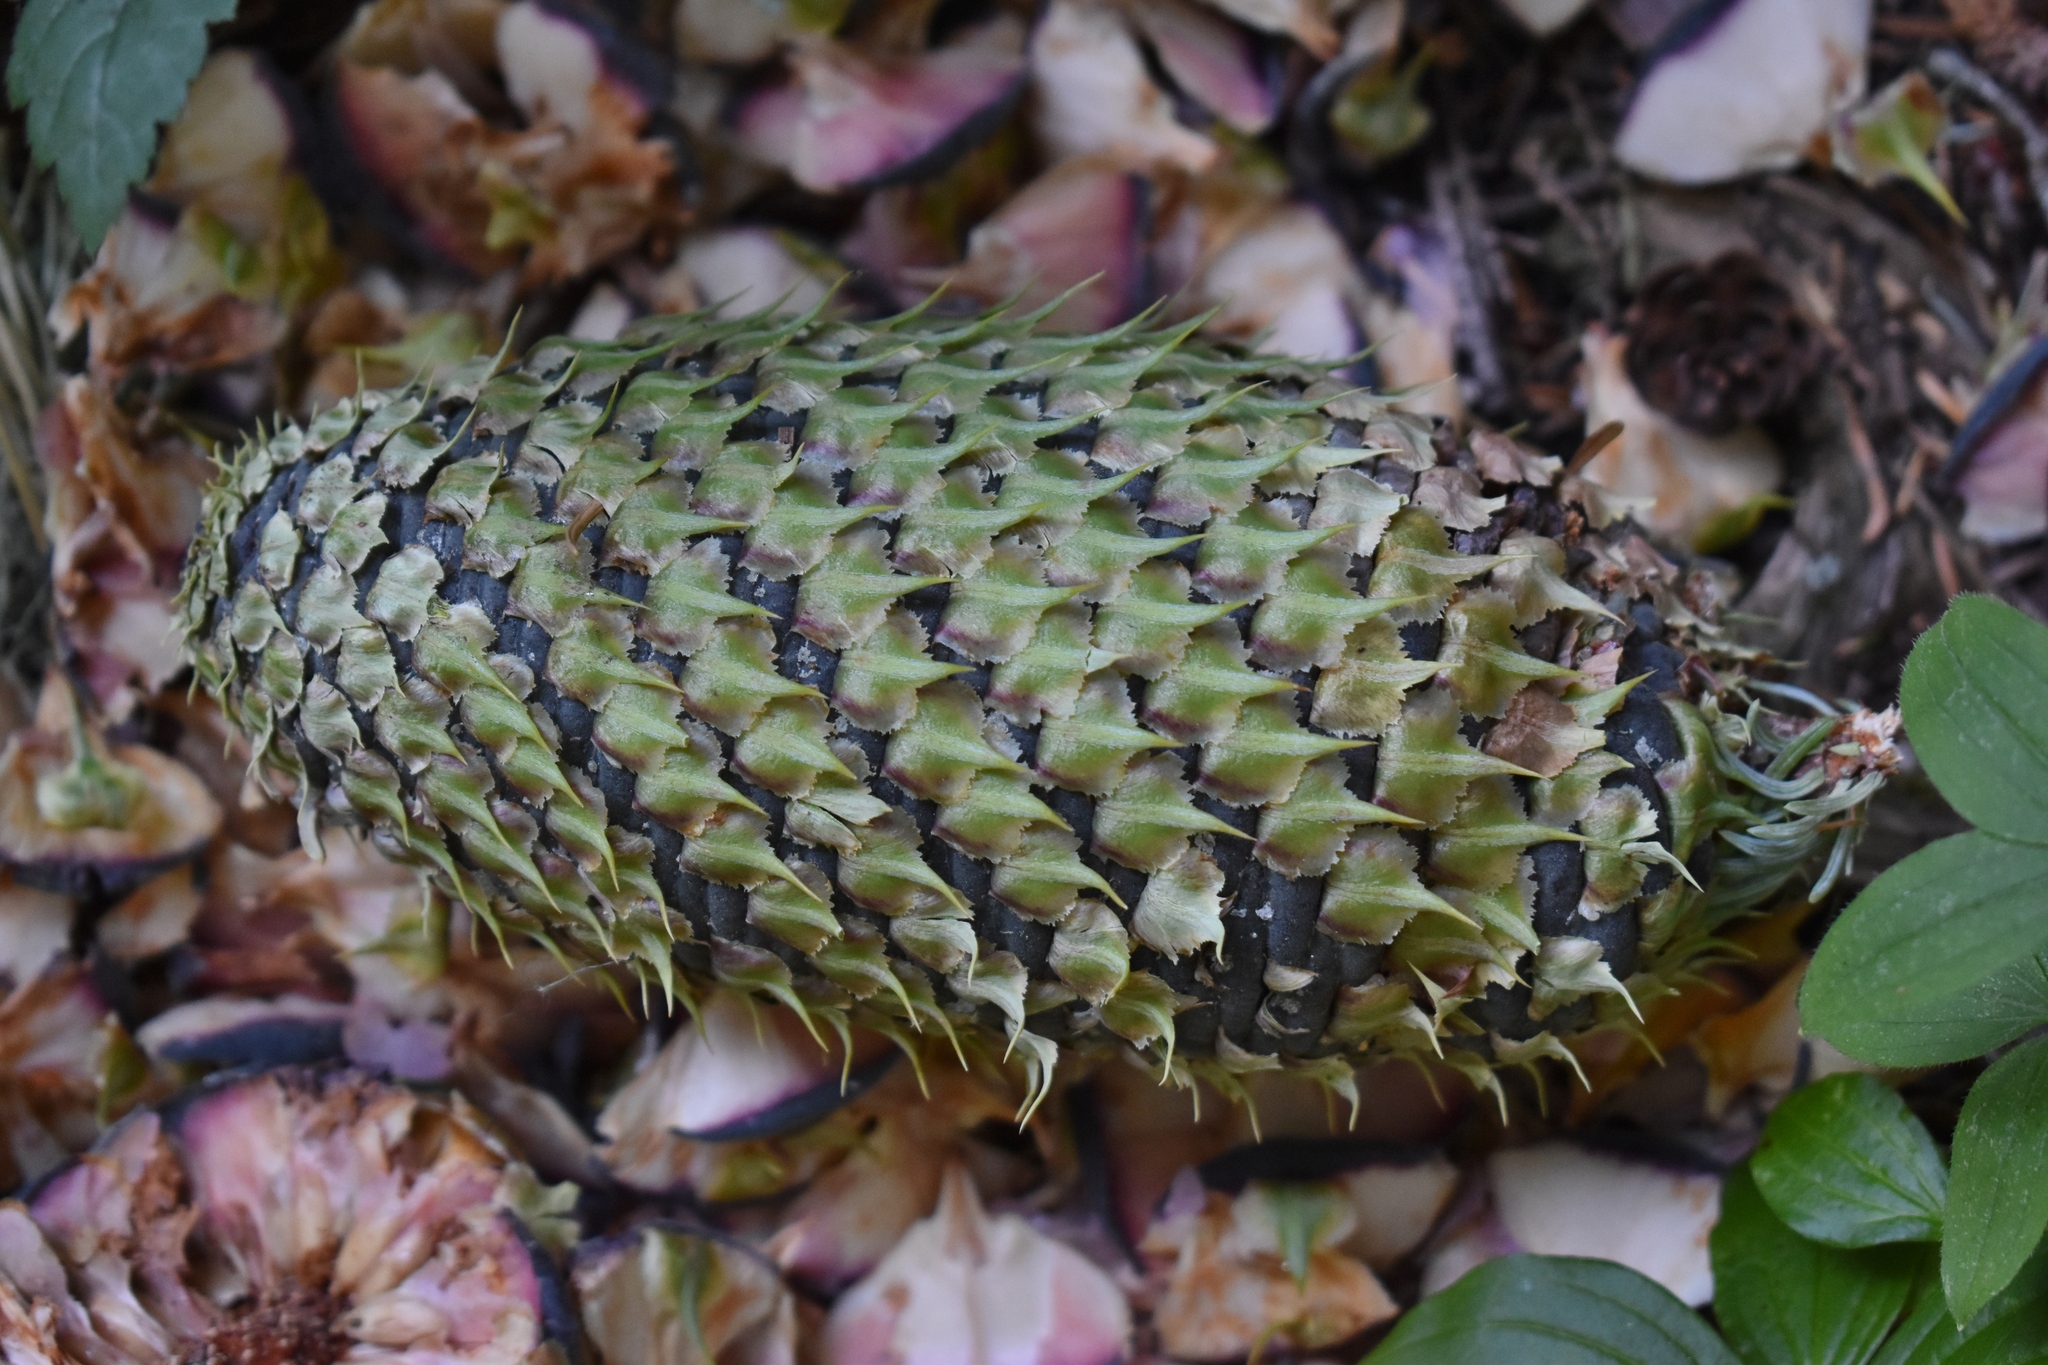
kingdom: Plantae
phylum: Tracheophyta
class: Pinopsida
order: Pinales
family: Pinaceae
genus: Abies
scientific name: Abies procera
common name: Noble fir
